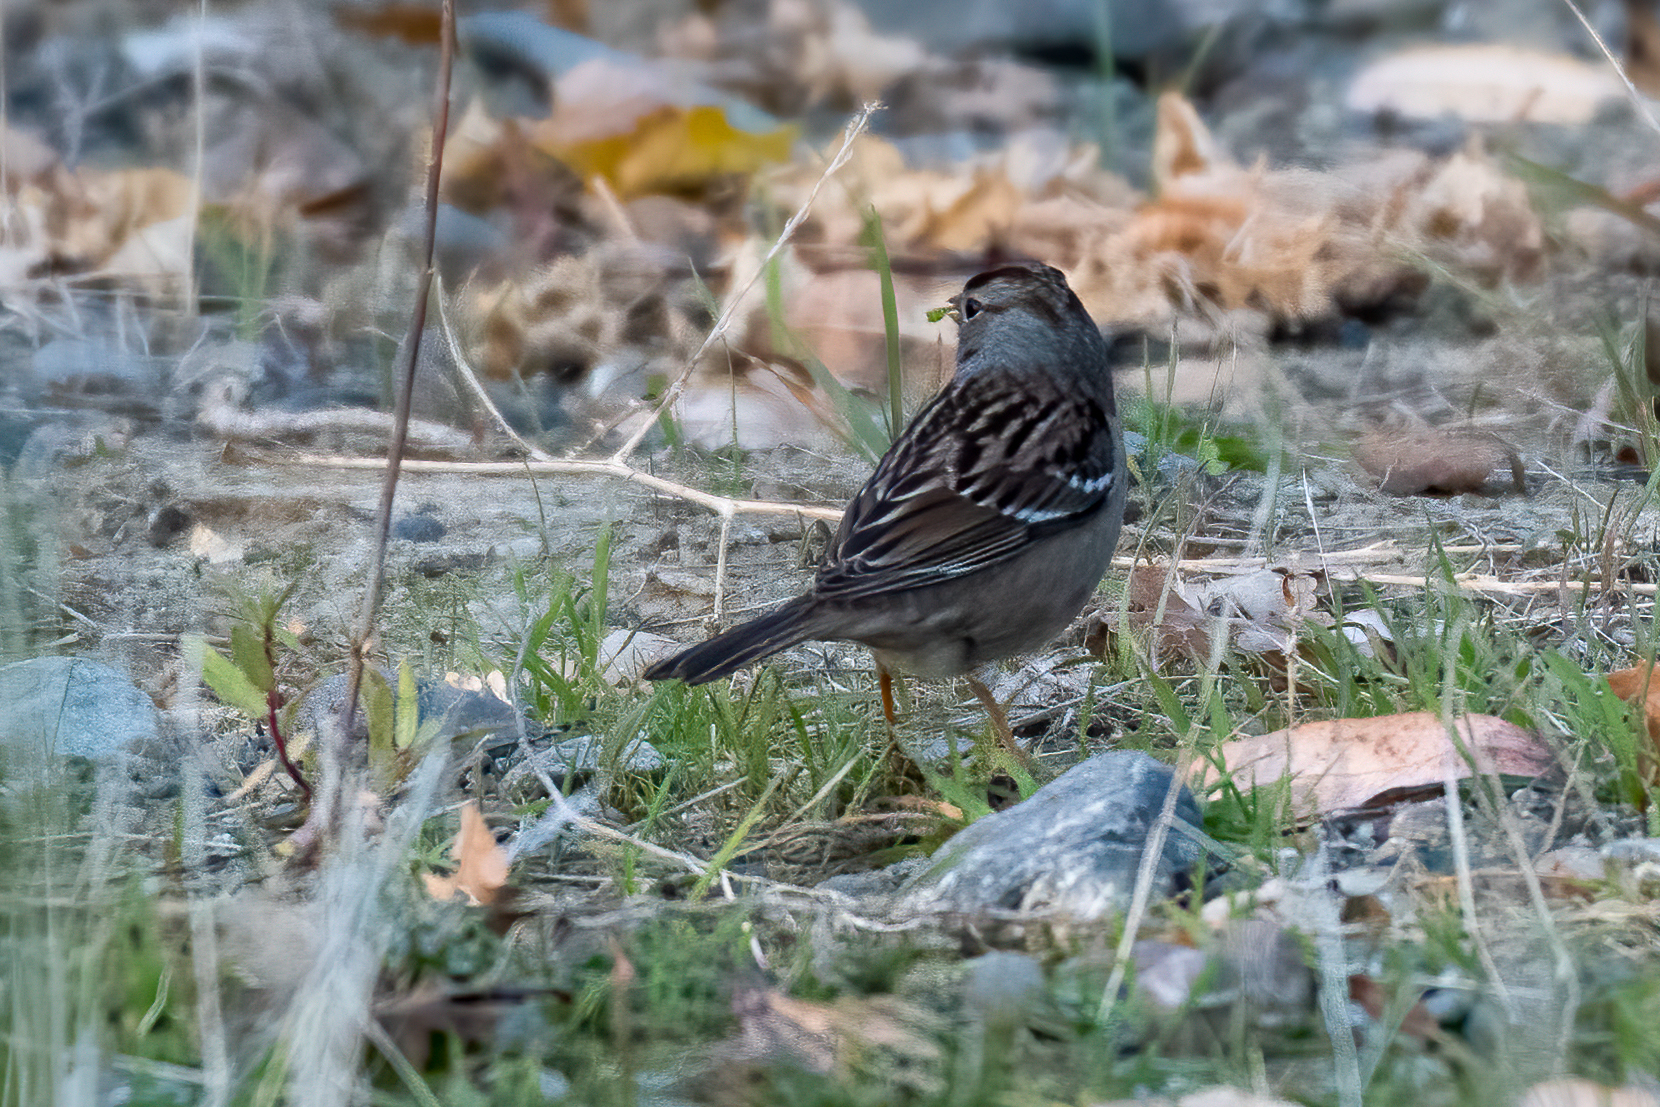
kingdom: Animalia
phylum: Chordata
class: Aves
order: Passeriformes
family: Passerellidae
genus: Zonotrichia
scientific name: Zonotrichia leucophrys
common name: White-crowned sparrow
